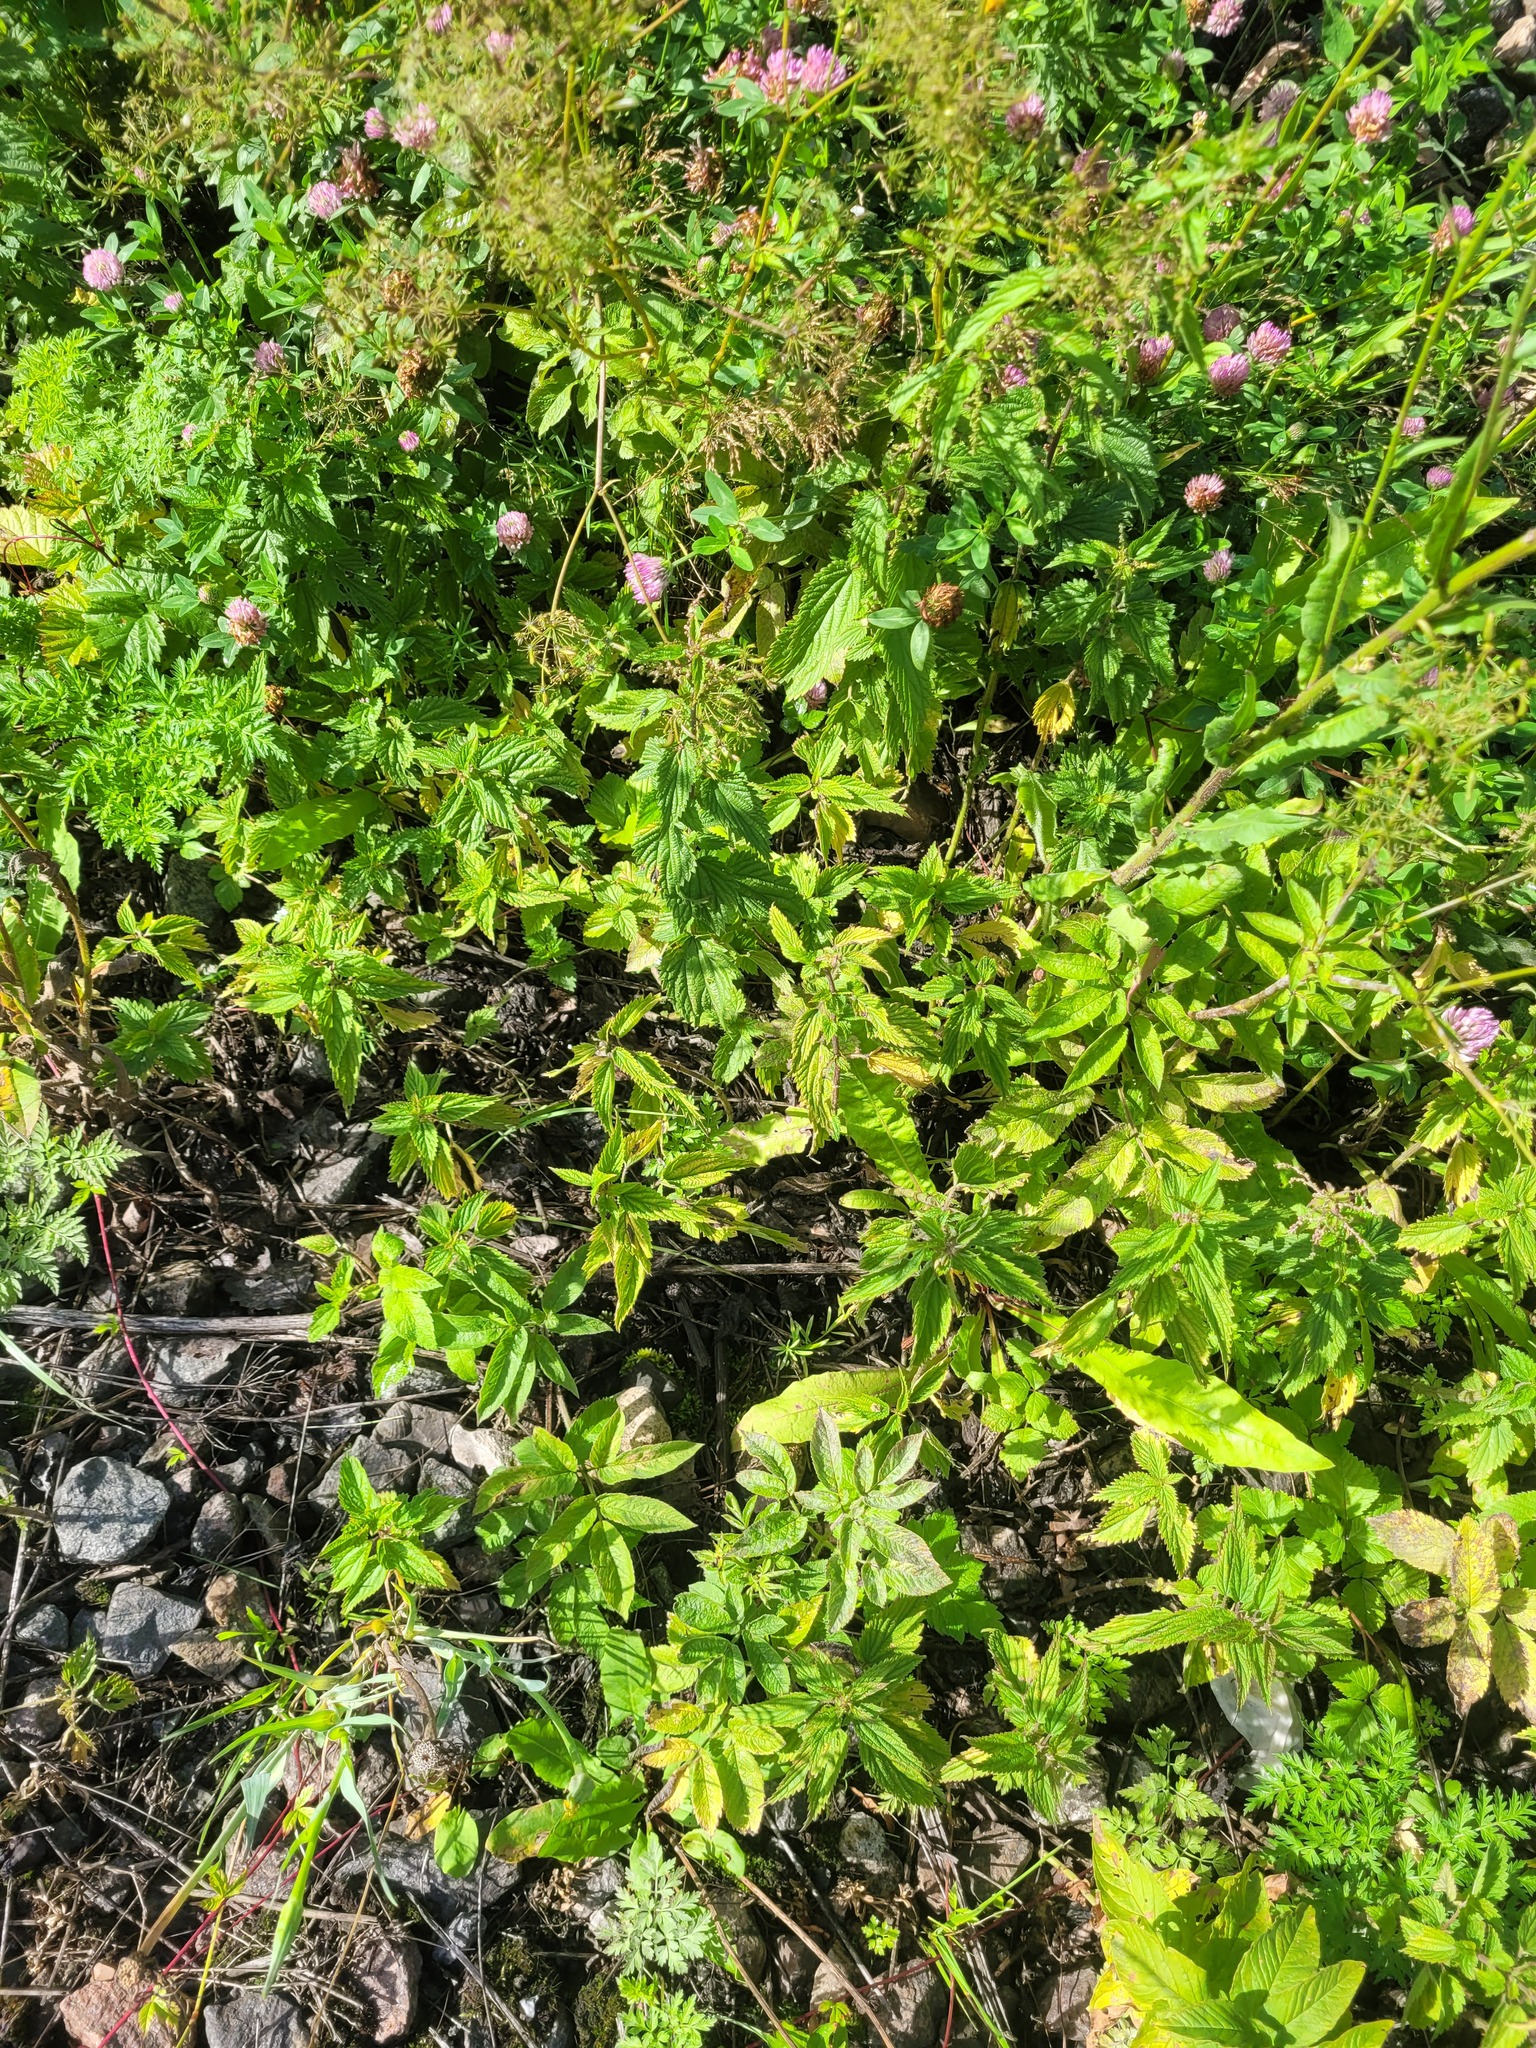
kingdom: Plantae
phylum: Tracheophyta
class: Magnoliopsida
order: Rosales
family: Urticaceae
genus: Urtica
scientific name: Urtica dioica
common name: Common nettle
